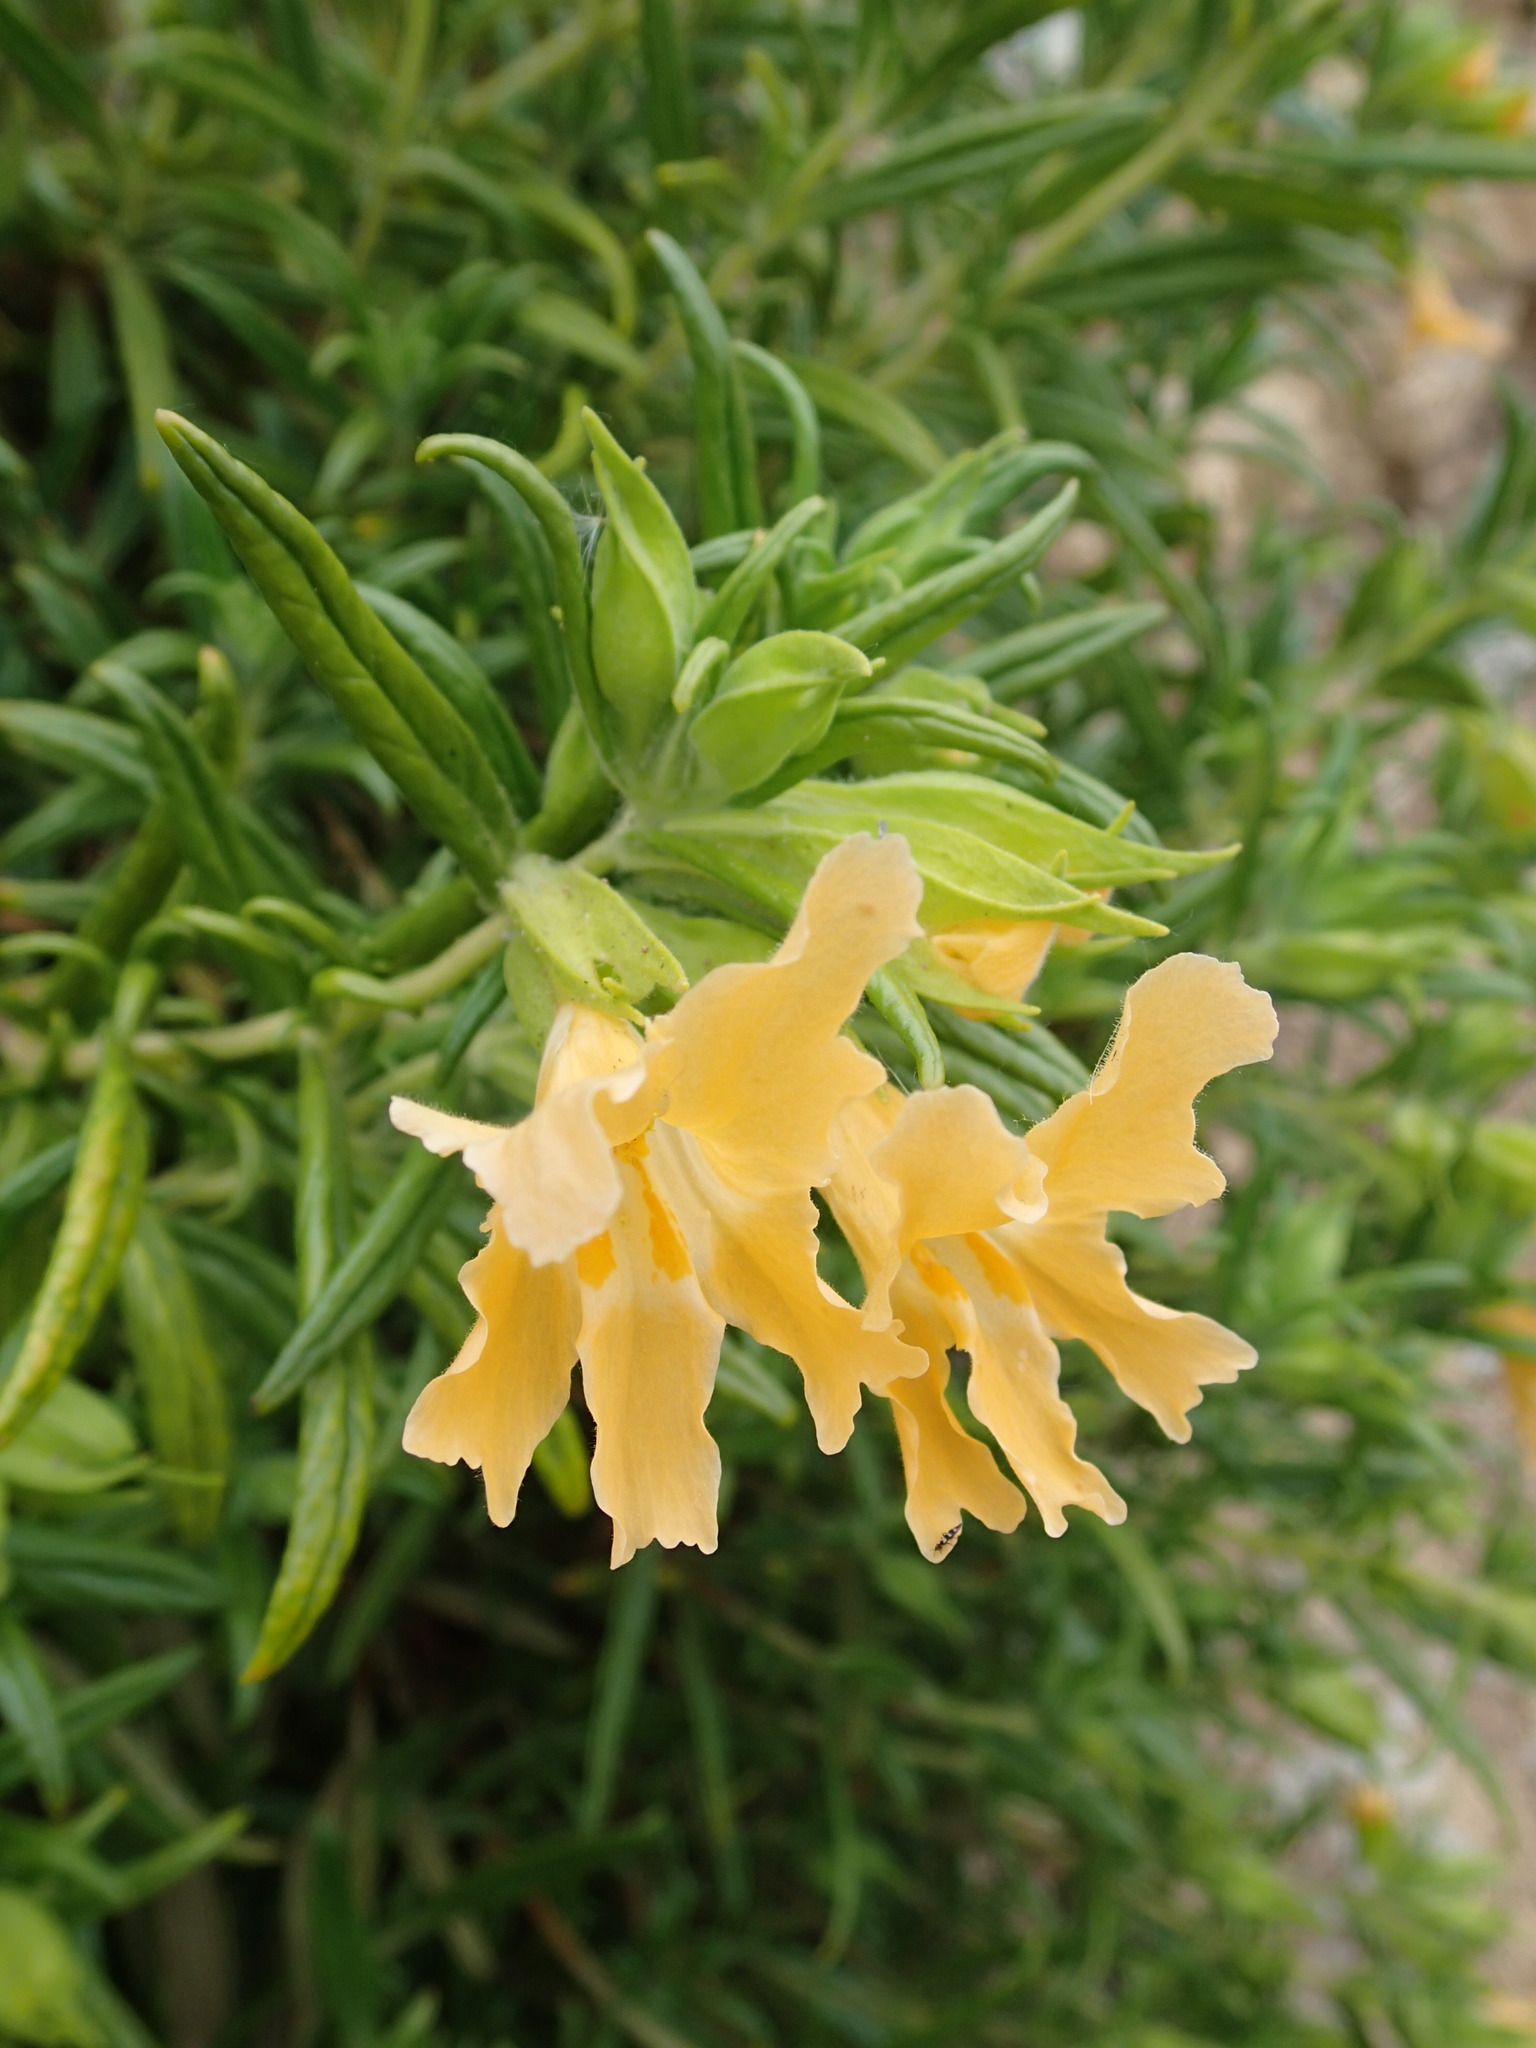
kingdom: Plantae
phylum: Tracheophyta
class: Magnoliopsida
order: Lamiales
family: Phrymaceae
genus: Diplacus
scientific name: Diplacus longiflorus
